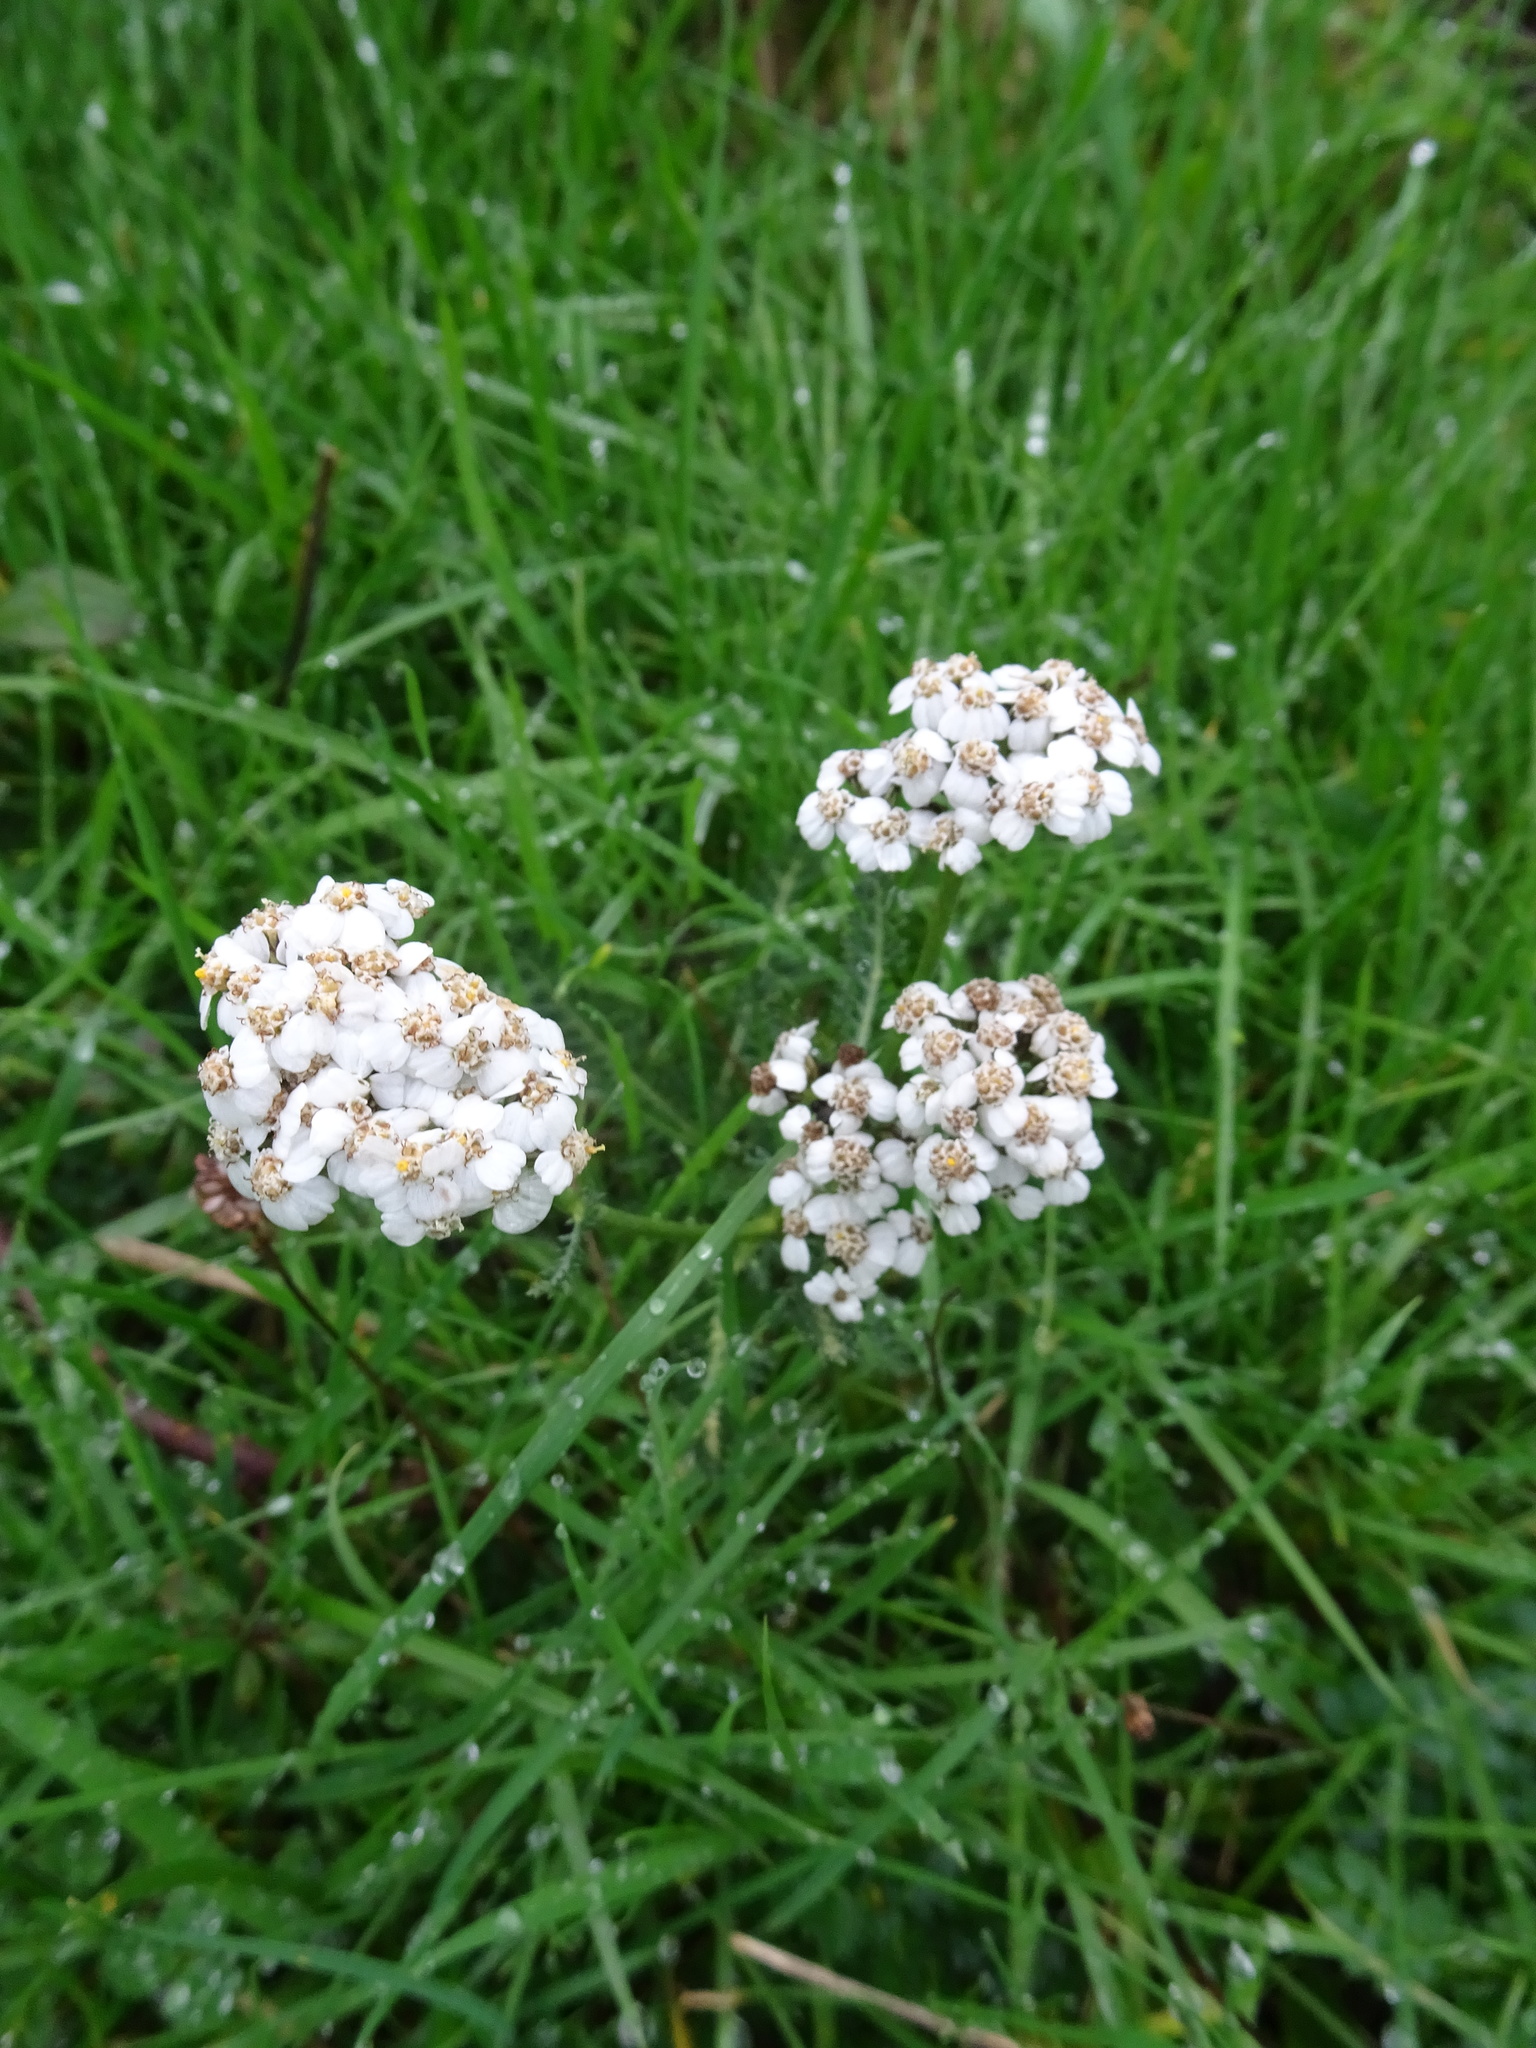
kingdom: Plantae
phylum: Tracheophyta
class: Magnoliopsida
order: Asterales
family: Asteraceae
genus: Achillea
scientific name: Achillea millefolium
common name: Yarrow
